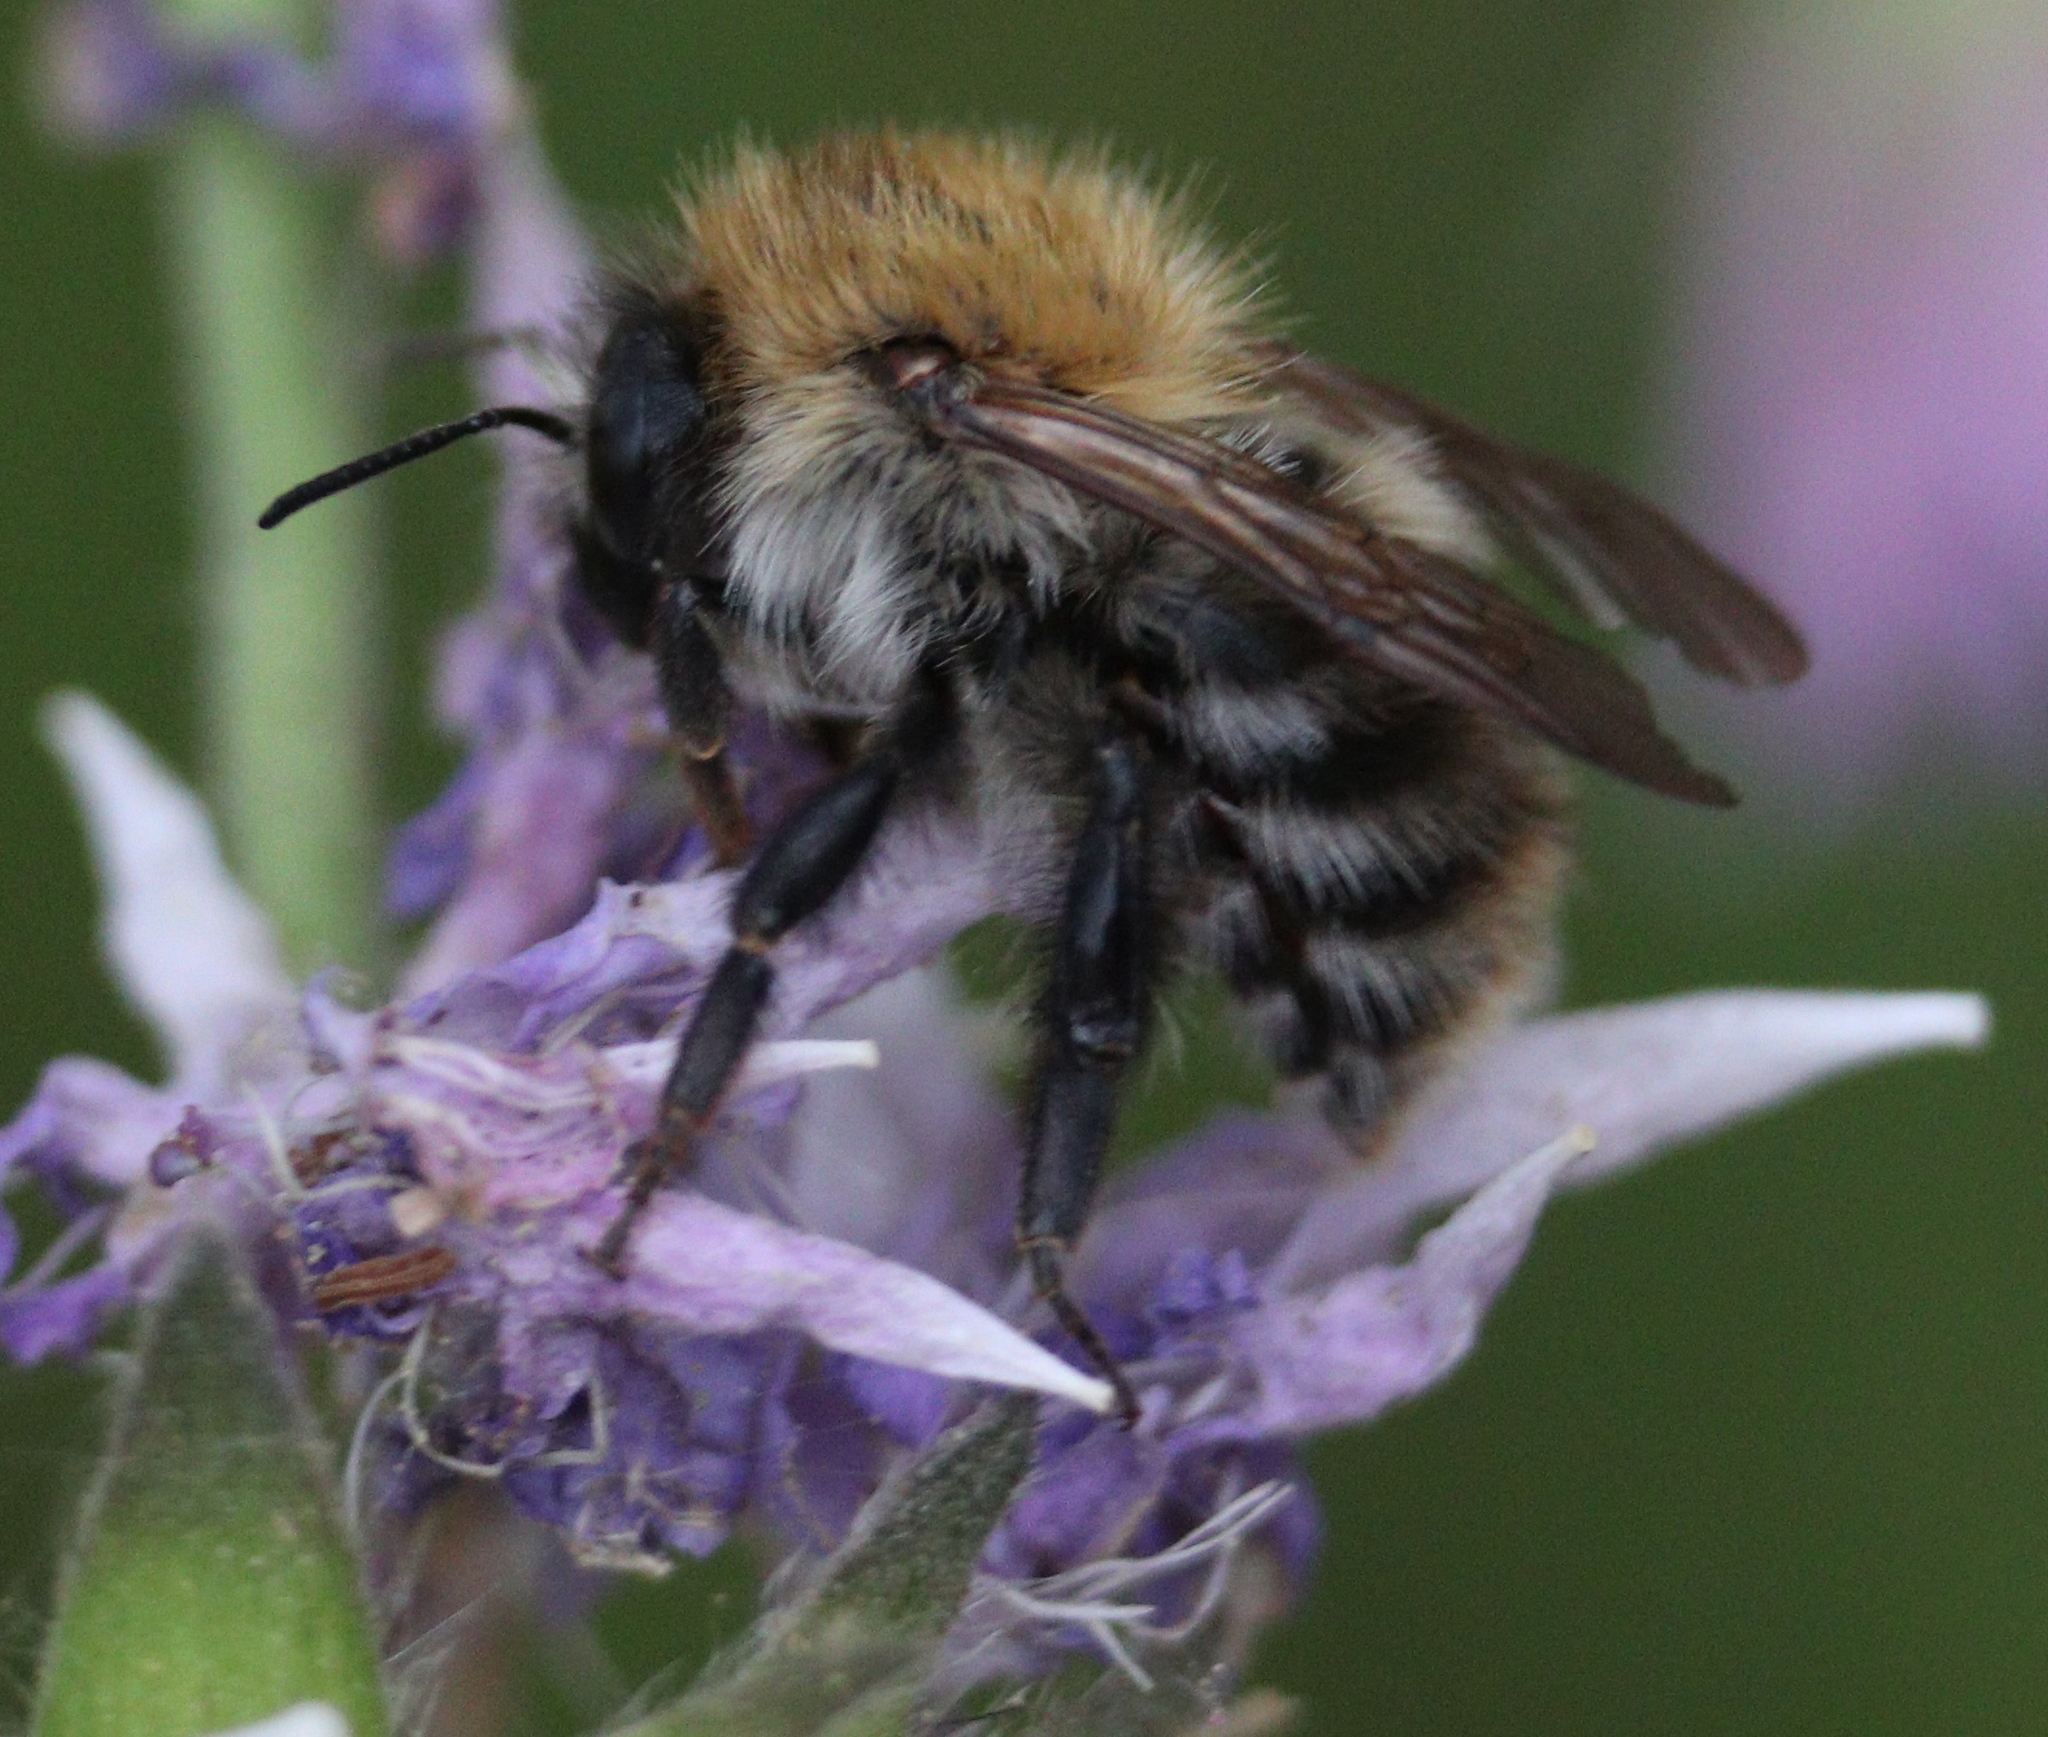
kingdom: Animalia
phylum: Arthropoda
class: Insecta
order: Hymenoptera
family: Apidae
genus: Bombus
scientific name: Bombus pascuorum
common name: Common carder bee
